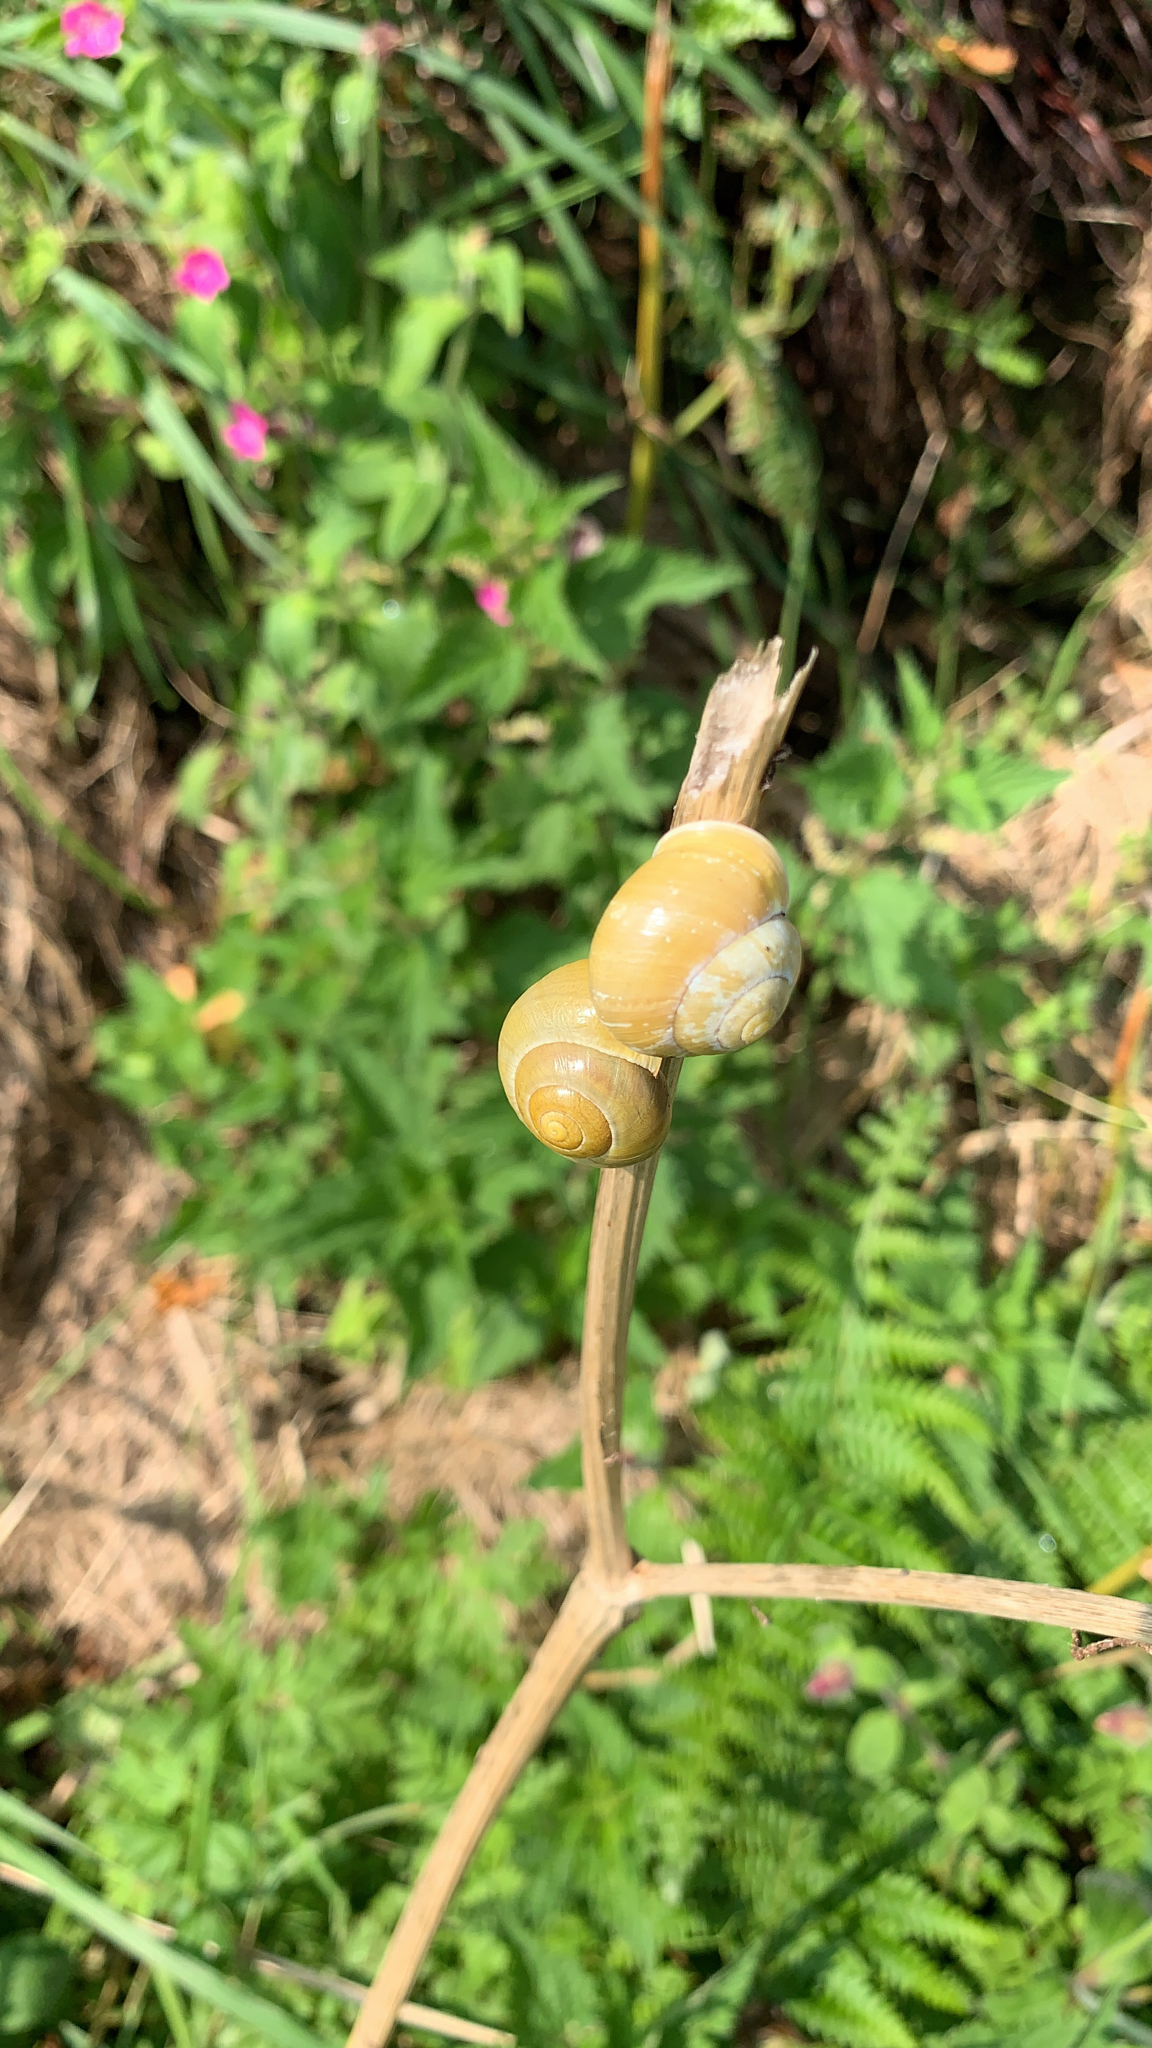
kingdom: Animalia
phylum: Mollusca
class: Gastropoda
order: Stylommatophora
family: Helicidae
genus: Cepaea
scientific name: Cepaea hortensis
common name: White-lip gardensnail
